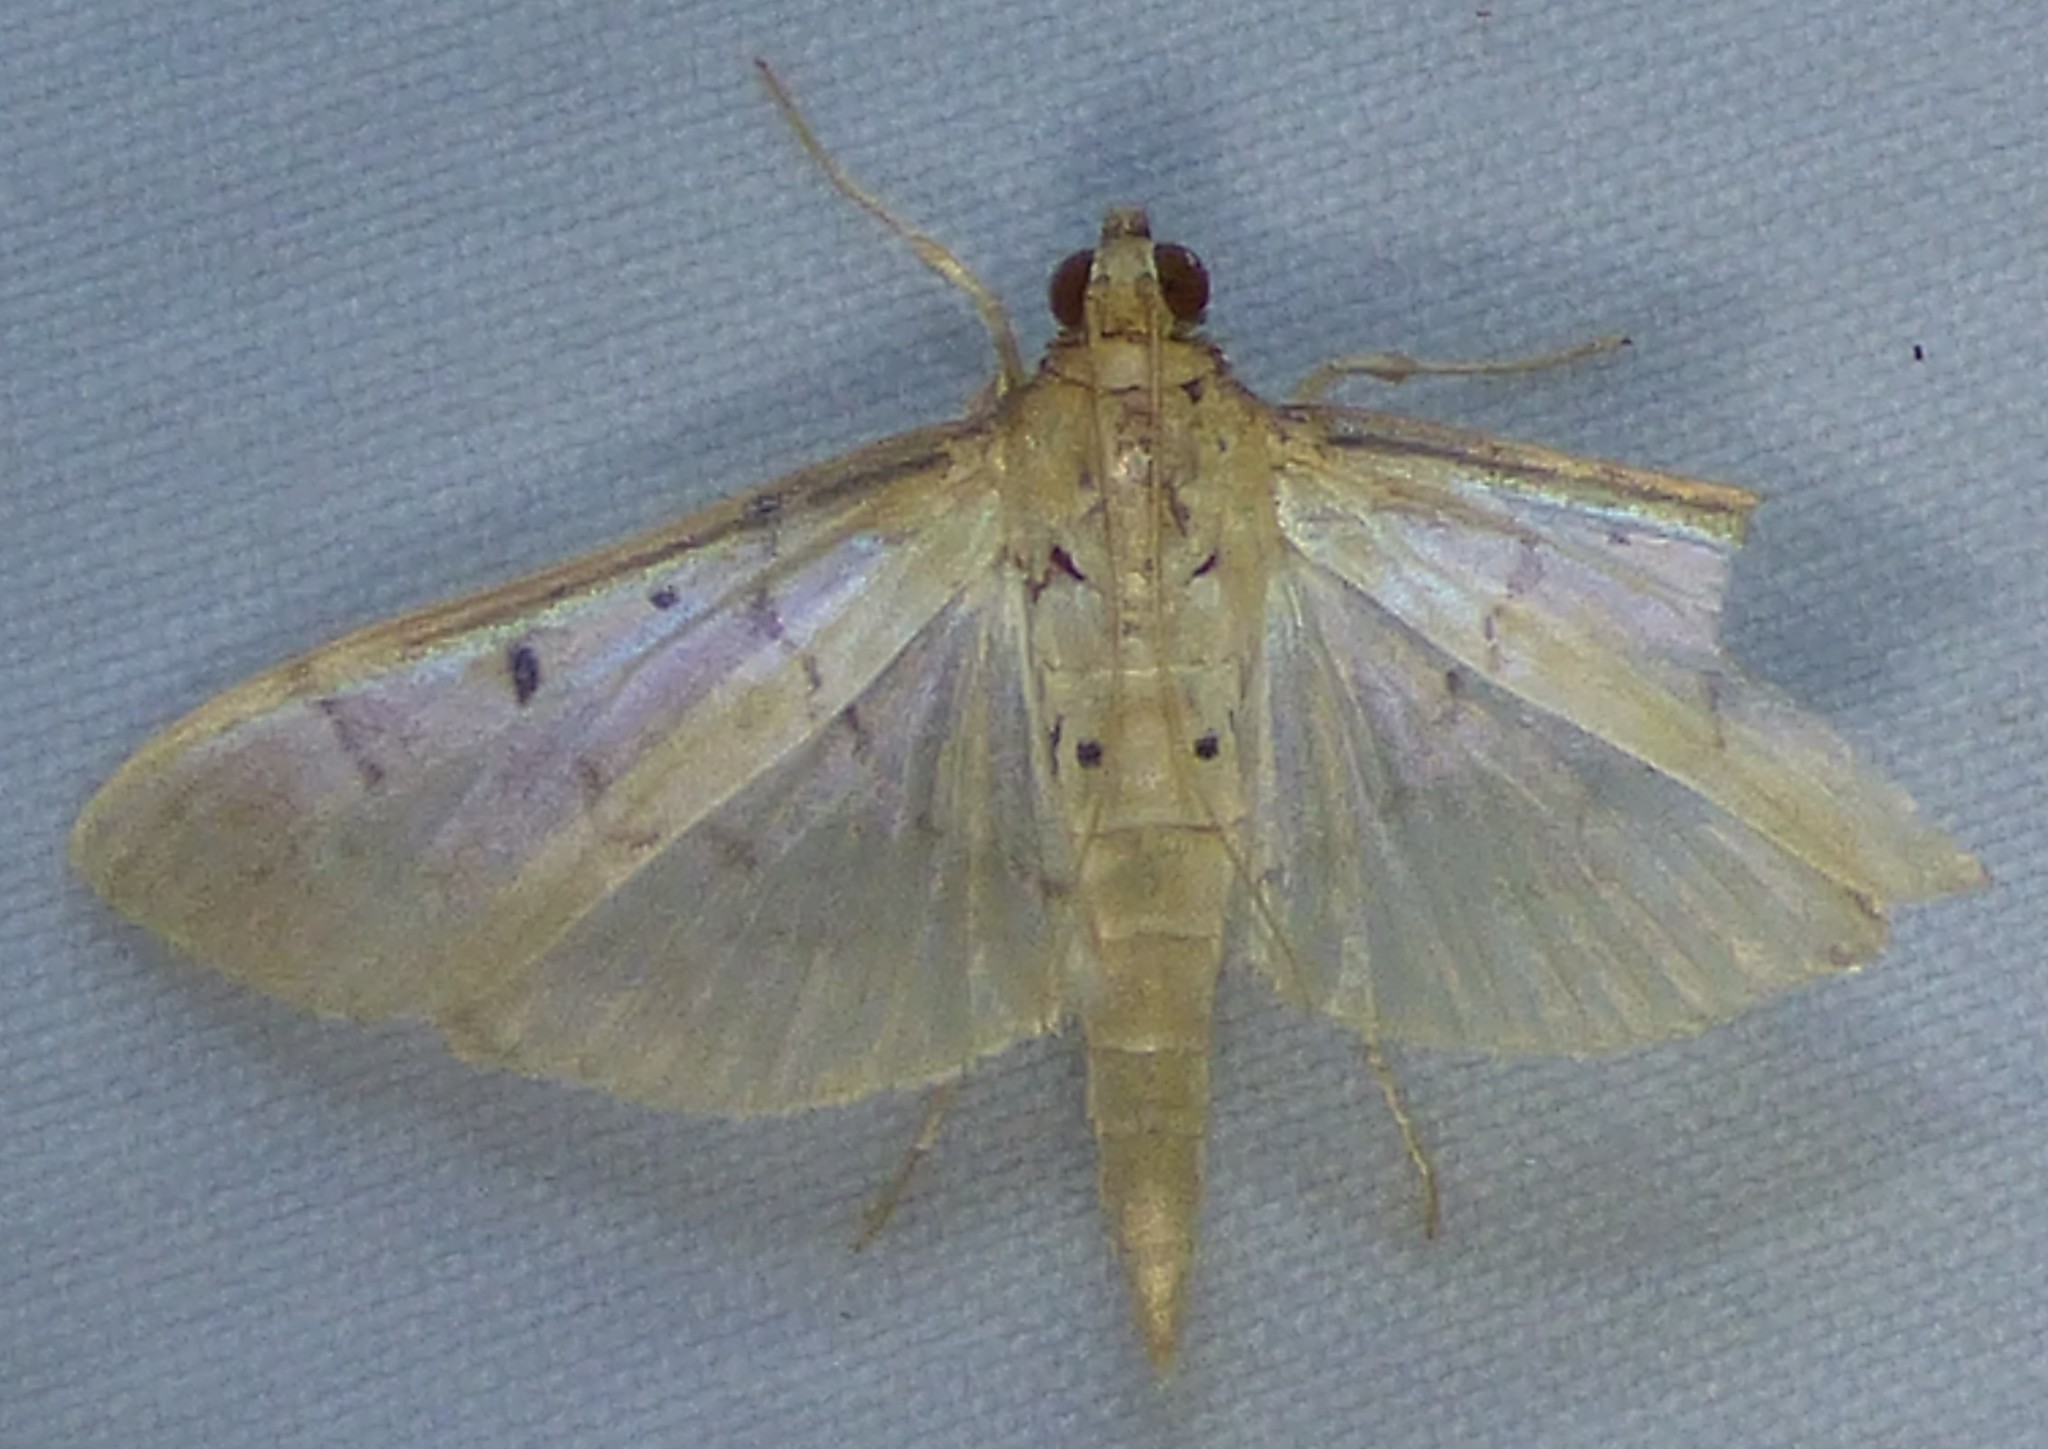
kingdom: Animalia
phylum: Arthropoda
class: Insecta
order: Lepidoptera
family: Crambidae
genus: Herpetogramma
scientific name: Herpetogramma bipunctalis
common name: Southern beet webworm
